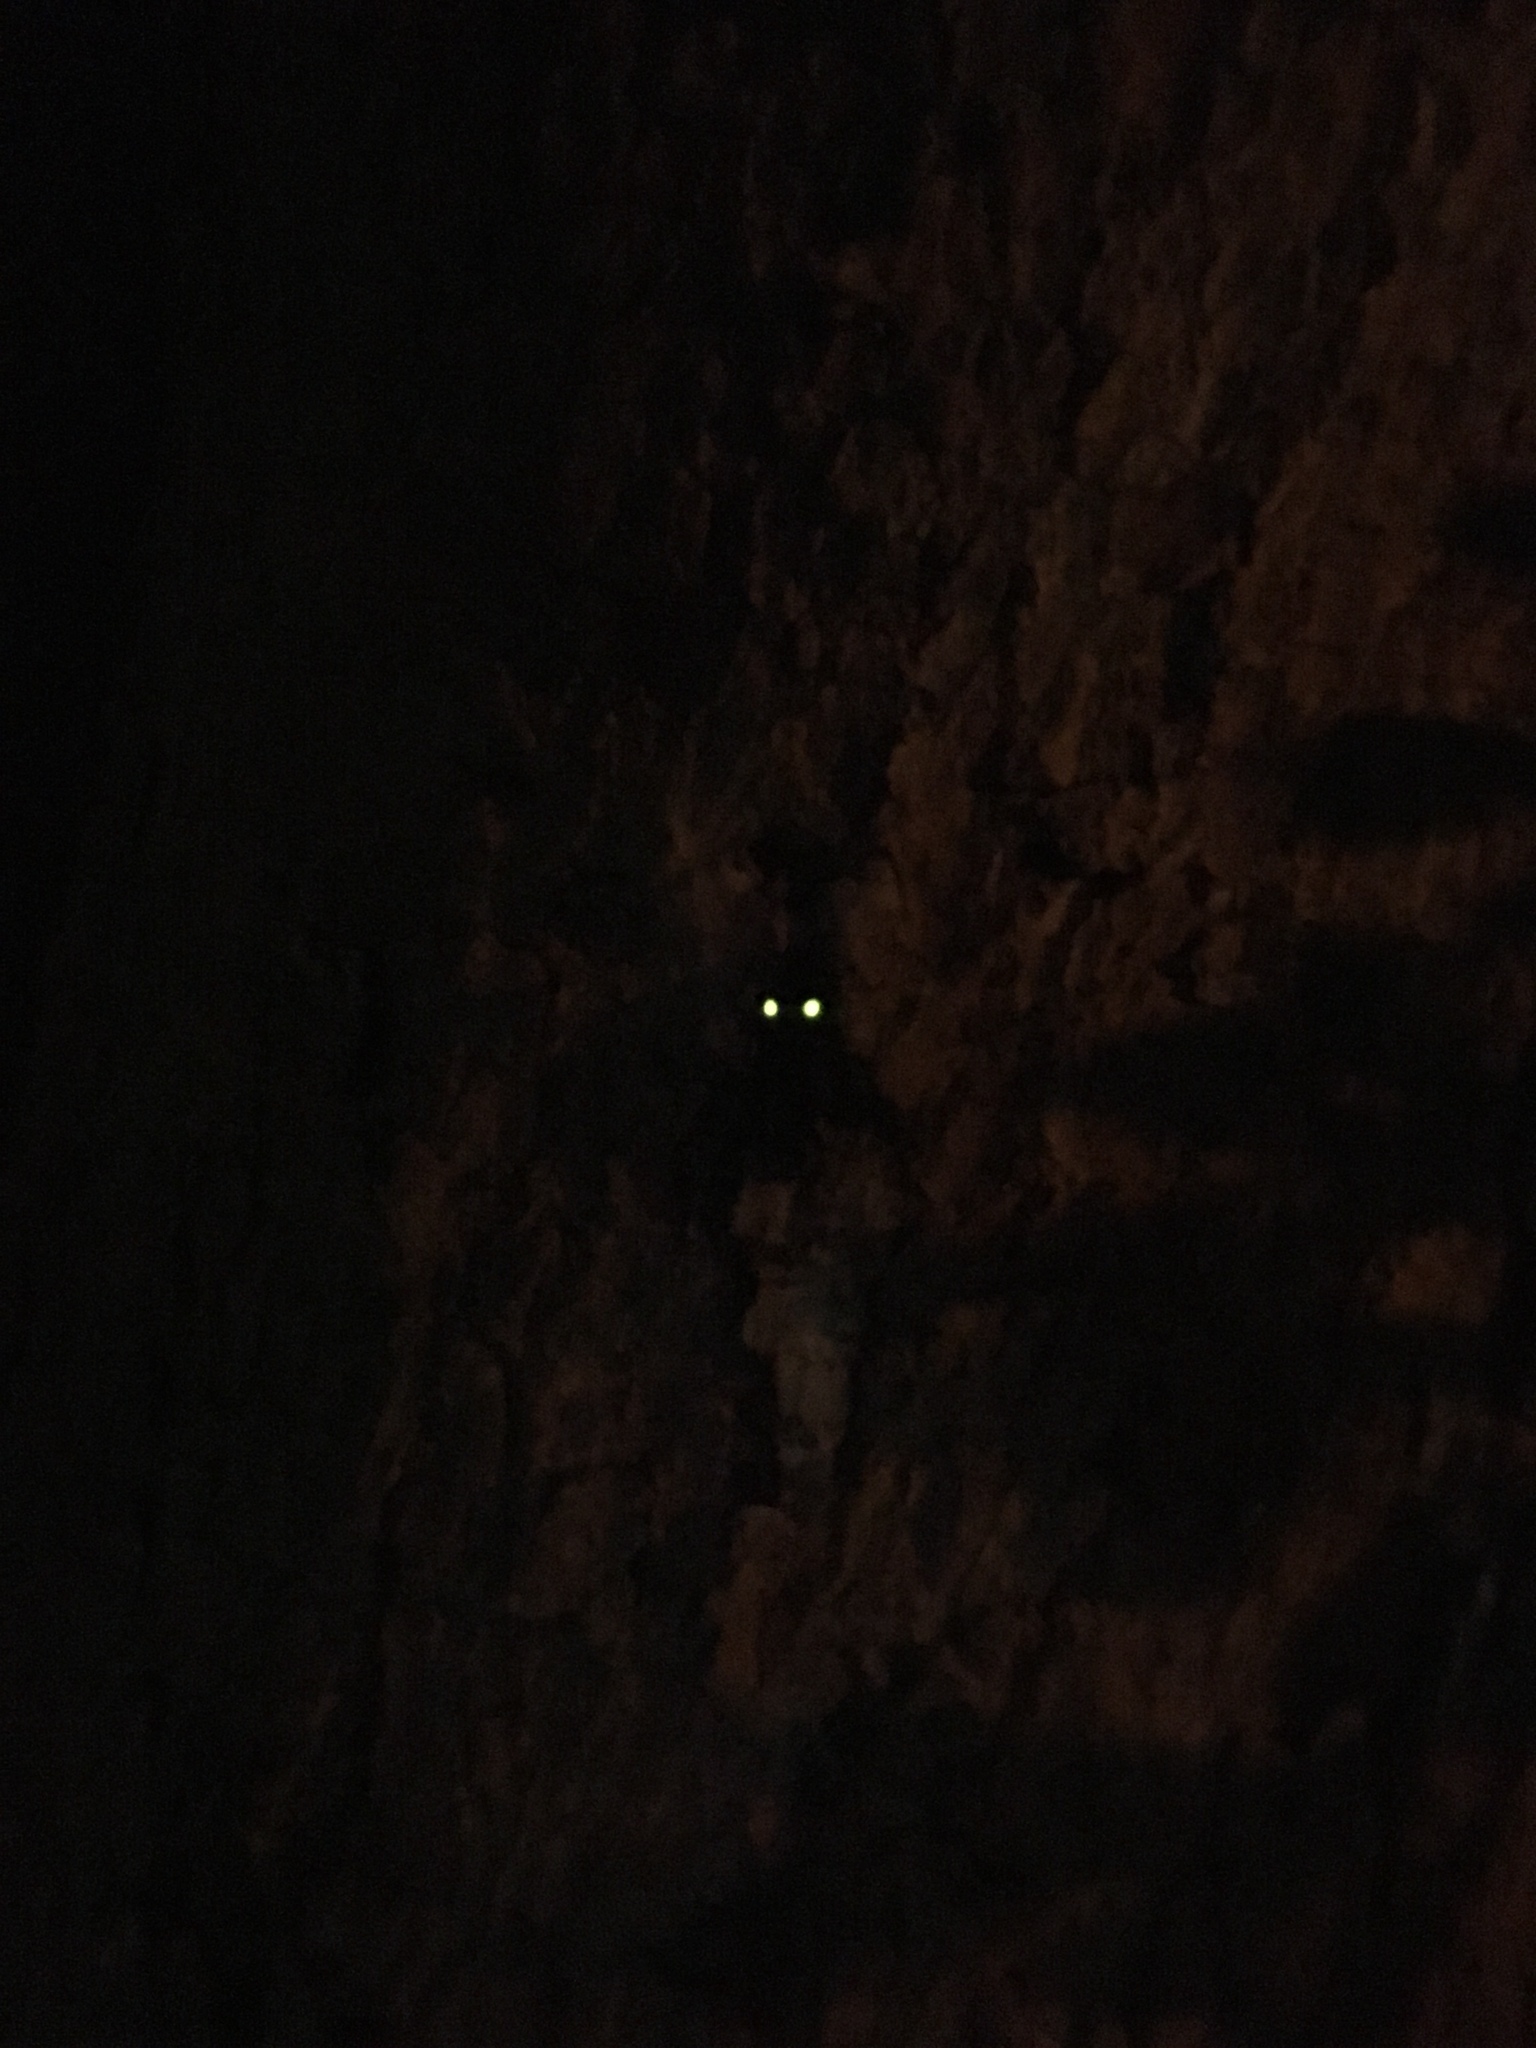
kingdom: Animalia
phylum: Arthropoda
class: Insecta
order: Coleoptera
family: Elateridae
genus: Ignelater
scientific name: Ignelater havaniensis
